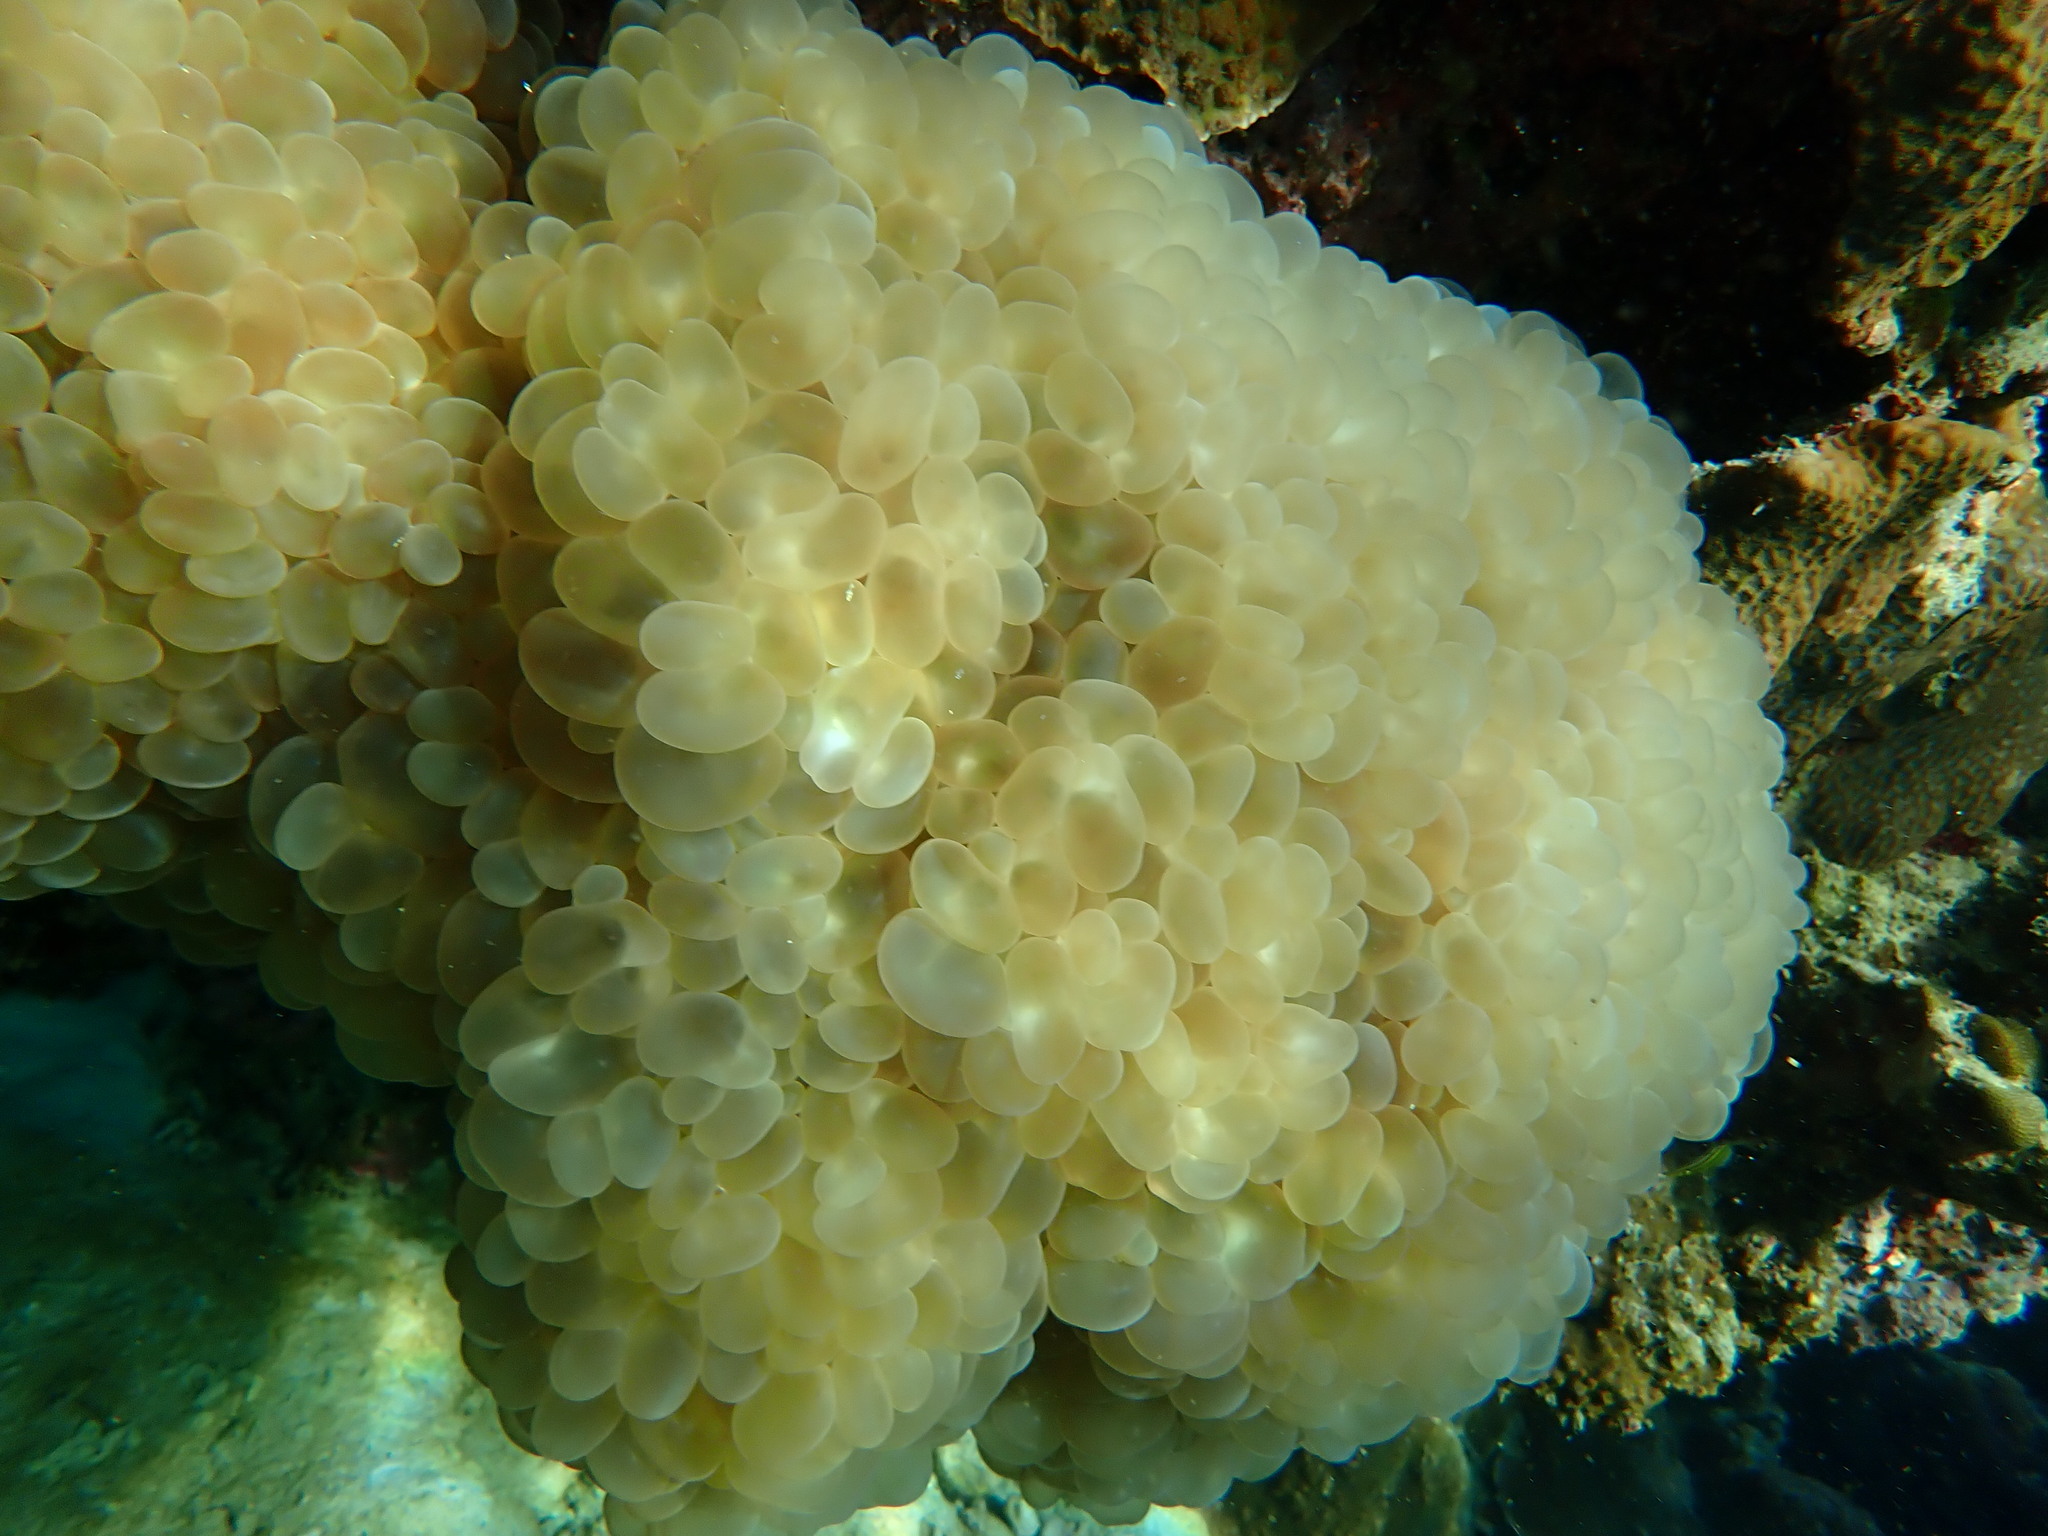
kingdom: Animalia
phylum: Cnidaria
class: Anthozoa
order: Scleractinia
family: Plerogyridae
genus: Plerogyra
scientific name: Plerogyra sinuosa
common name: Bubble coral
